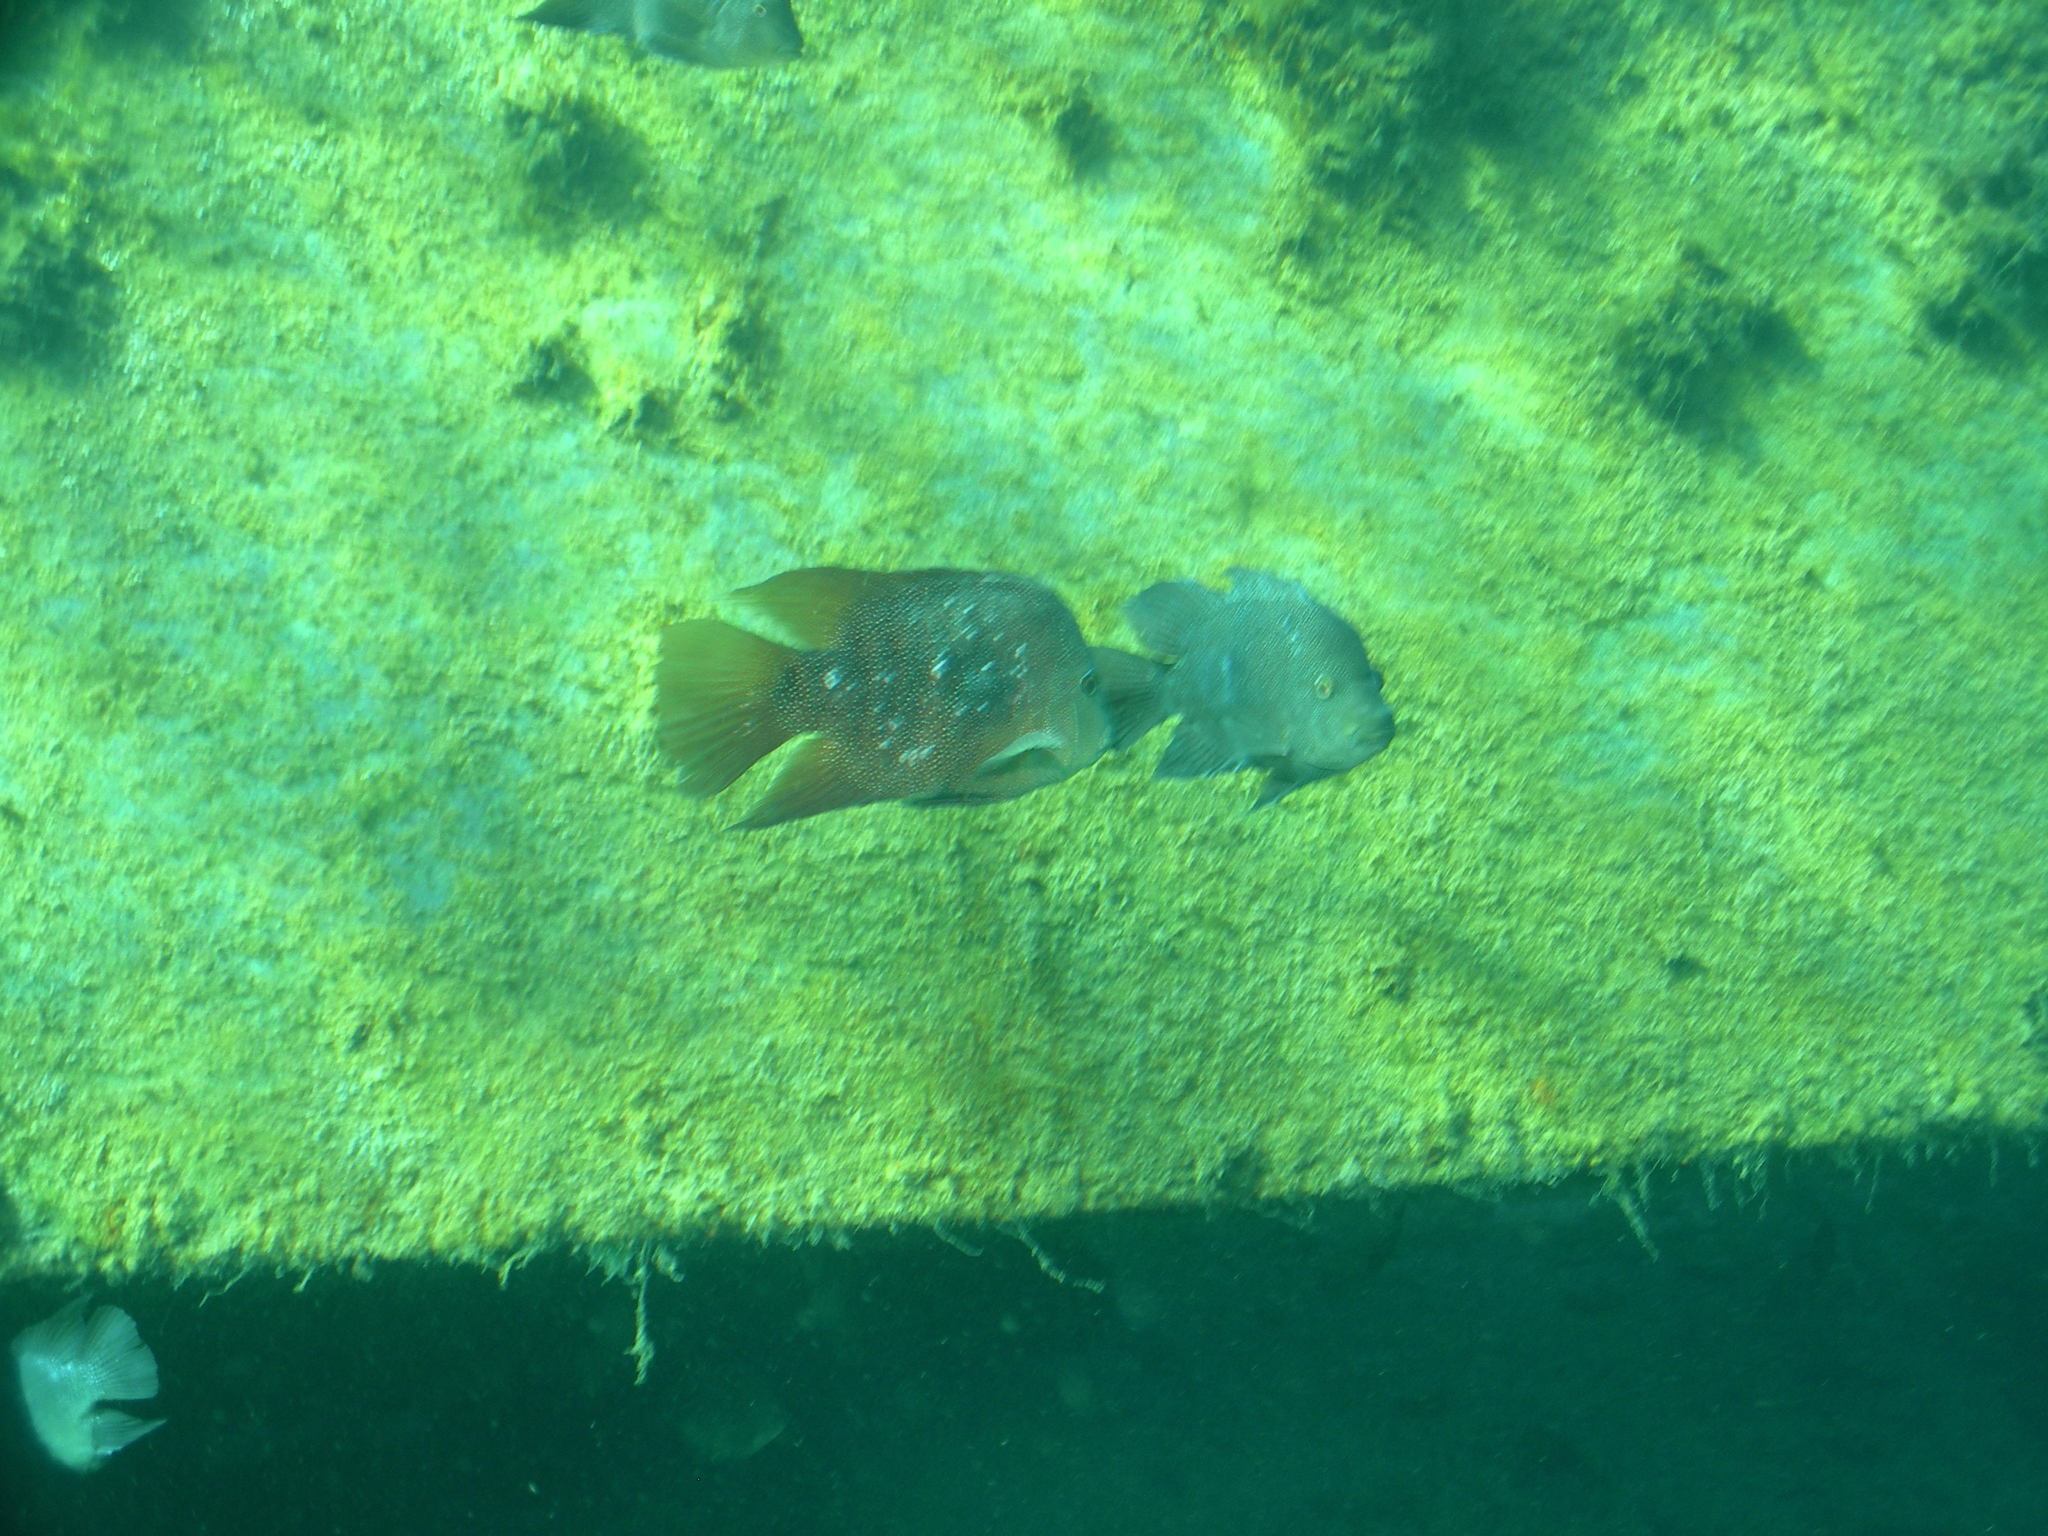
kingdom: Animalia
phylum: Chordata
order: Perciformes
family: Cichlidae
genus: Herichthys
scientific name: Herichthys cyanoguttatus
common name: Rio grande cichlid
